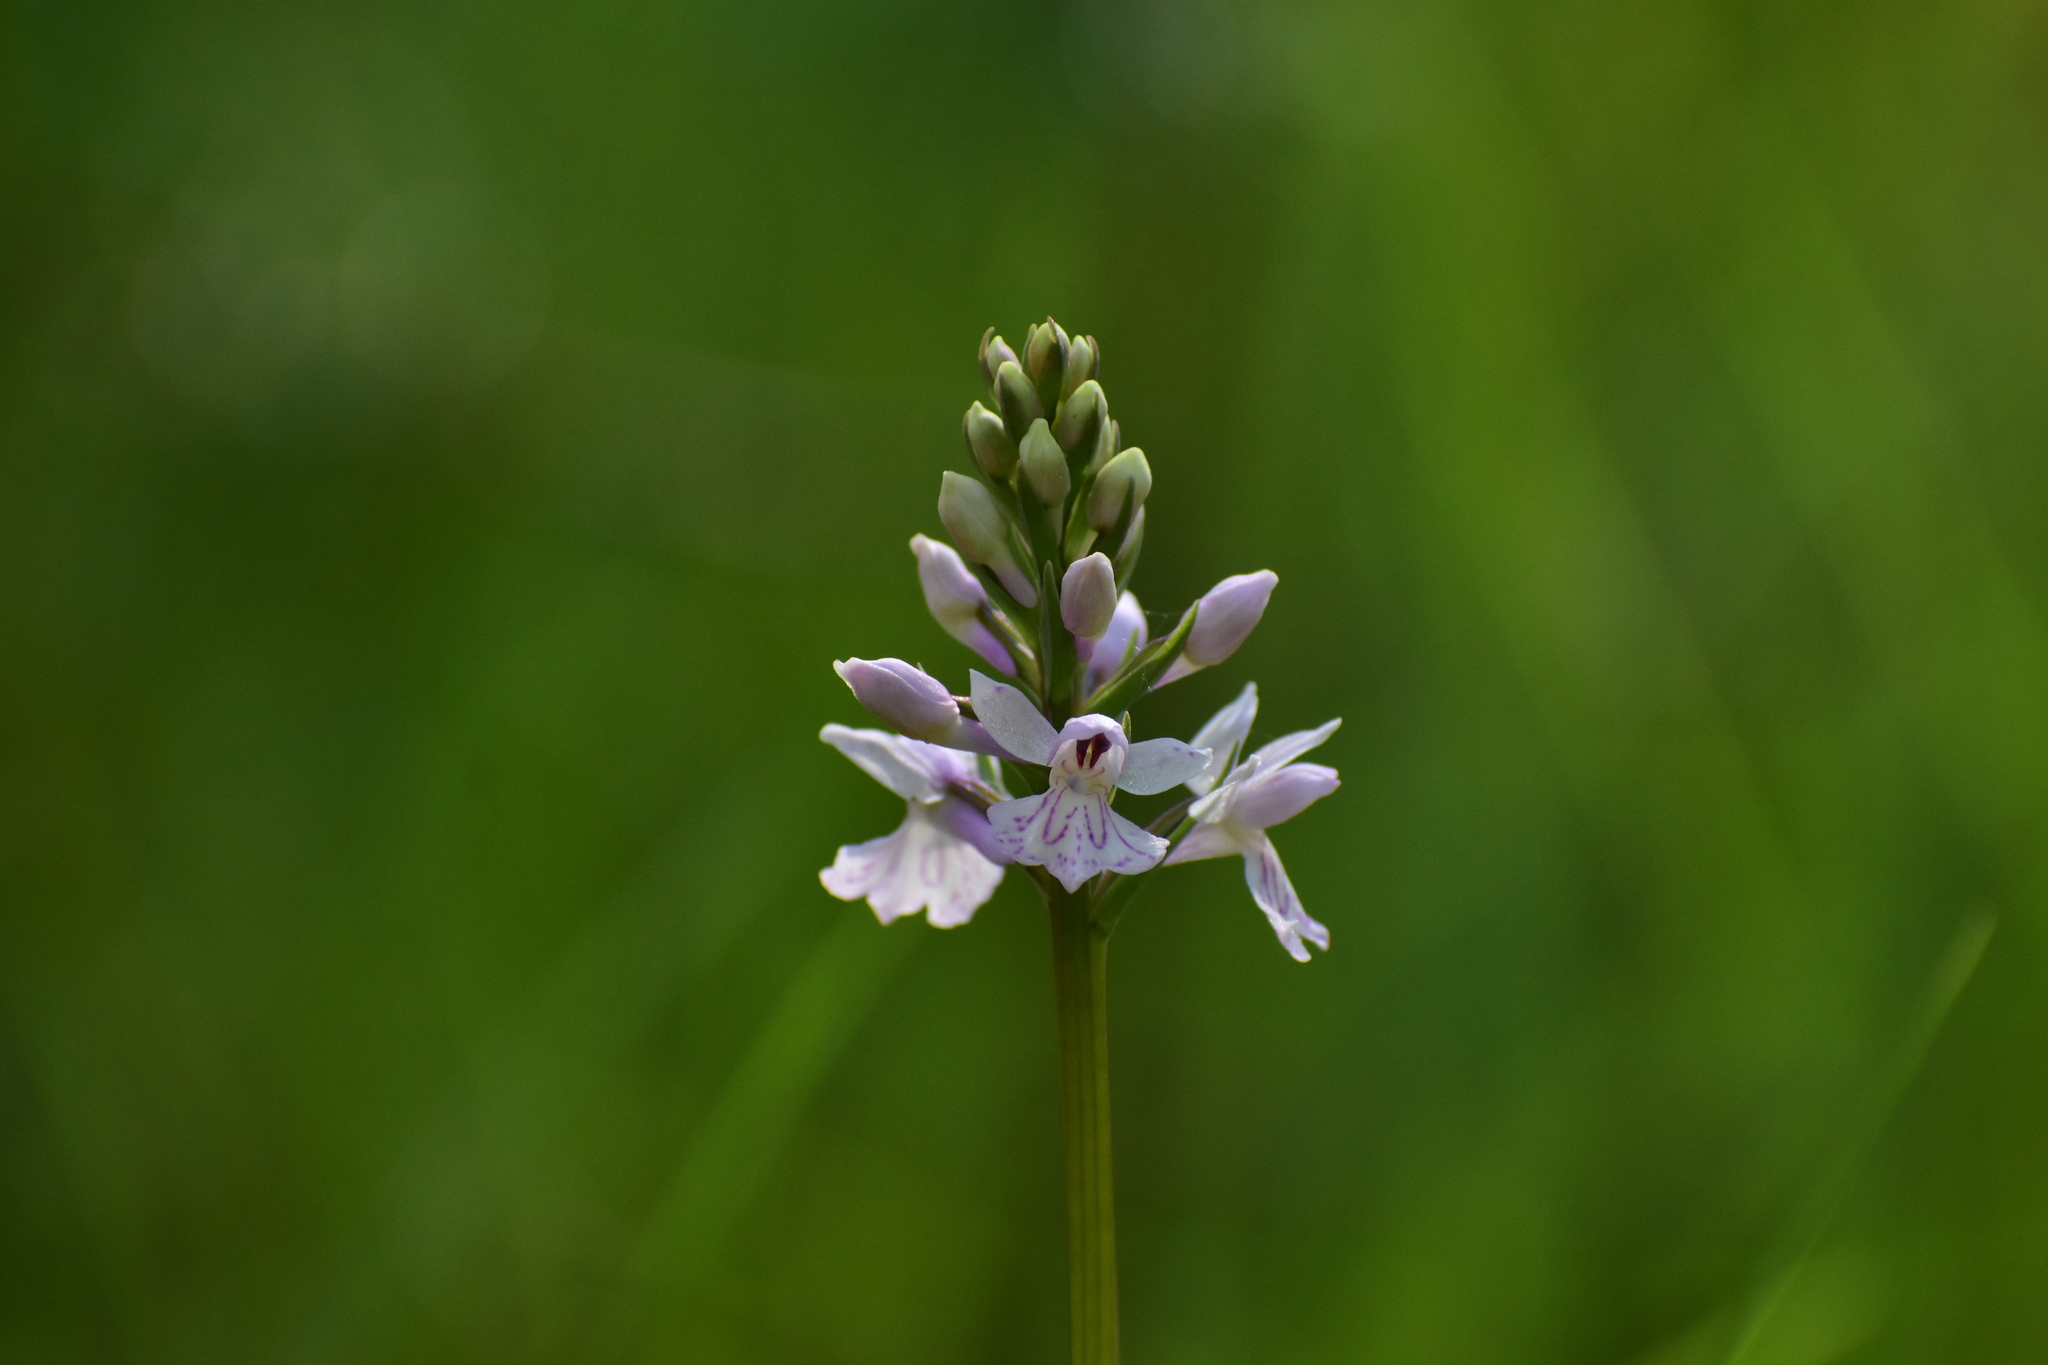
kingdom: Plantae
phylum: Tracheophyta
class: Liliopsida
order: Asparagales
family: Orchidaceae
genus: Dactylorhiza
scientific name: Dactylorhiza maculata
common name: Heath spotted-orchid
